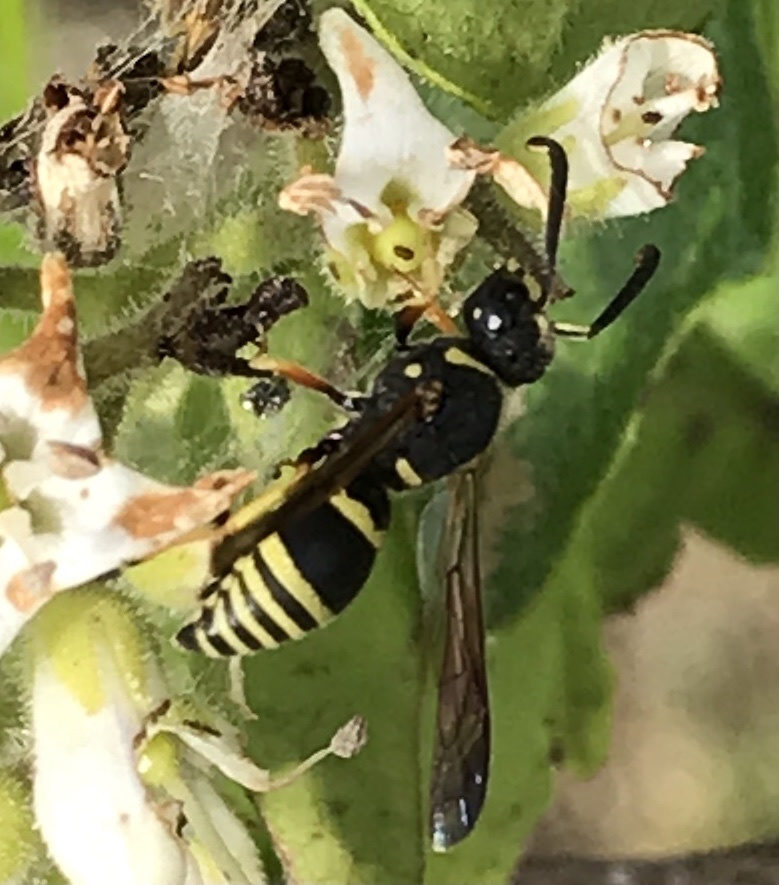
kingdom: Animalia
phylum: Arthropoda
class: Insecta
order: Hymenoptera
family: Eumenidae
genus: Euodynerus
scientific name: Euodynerus
